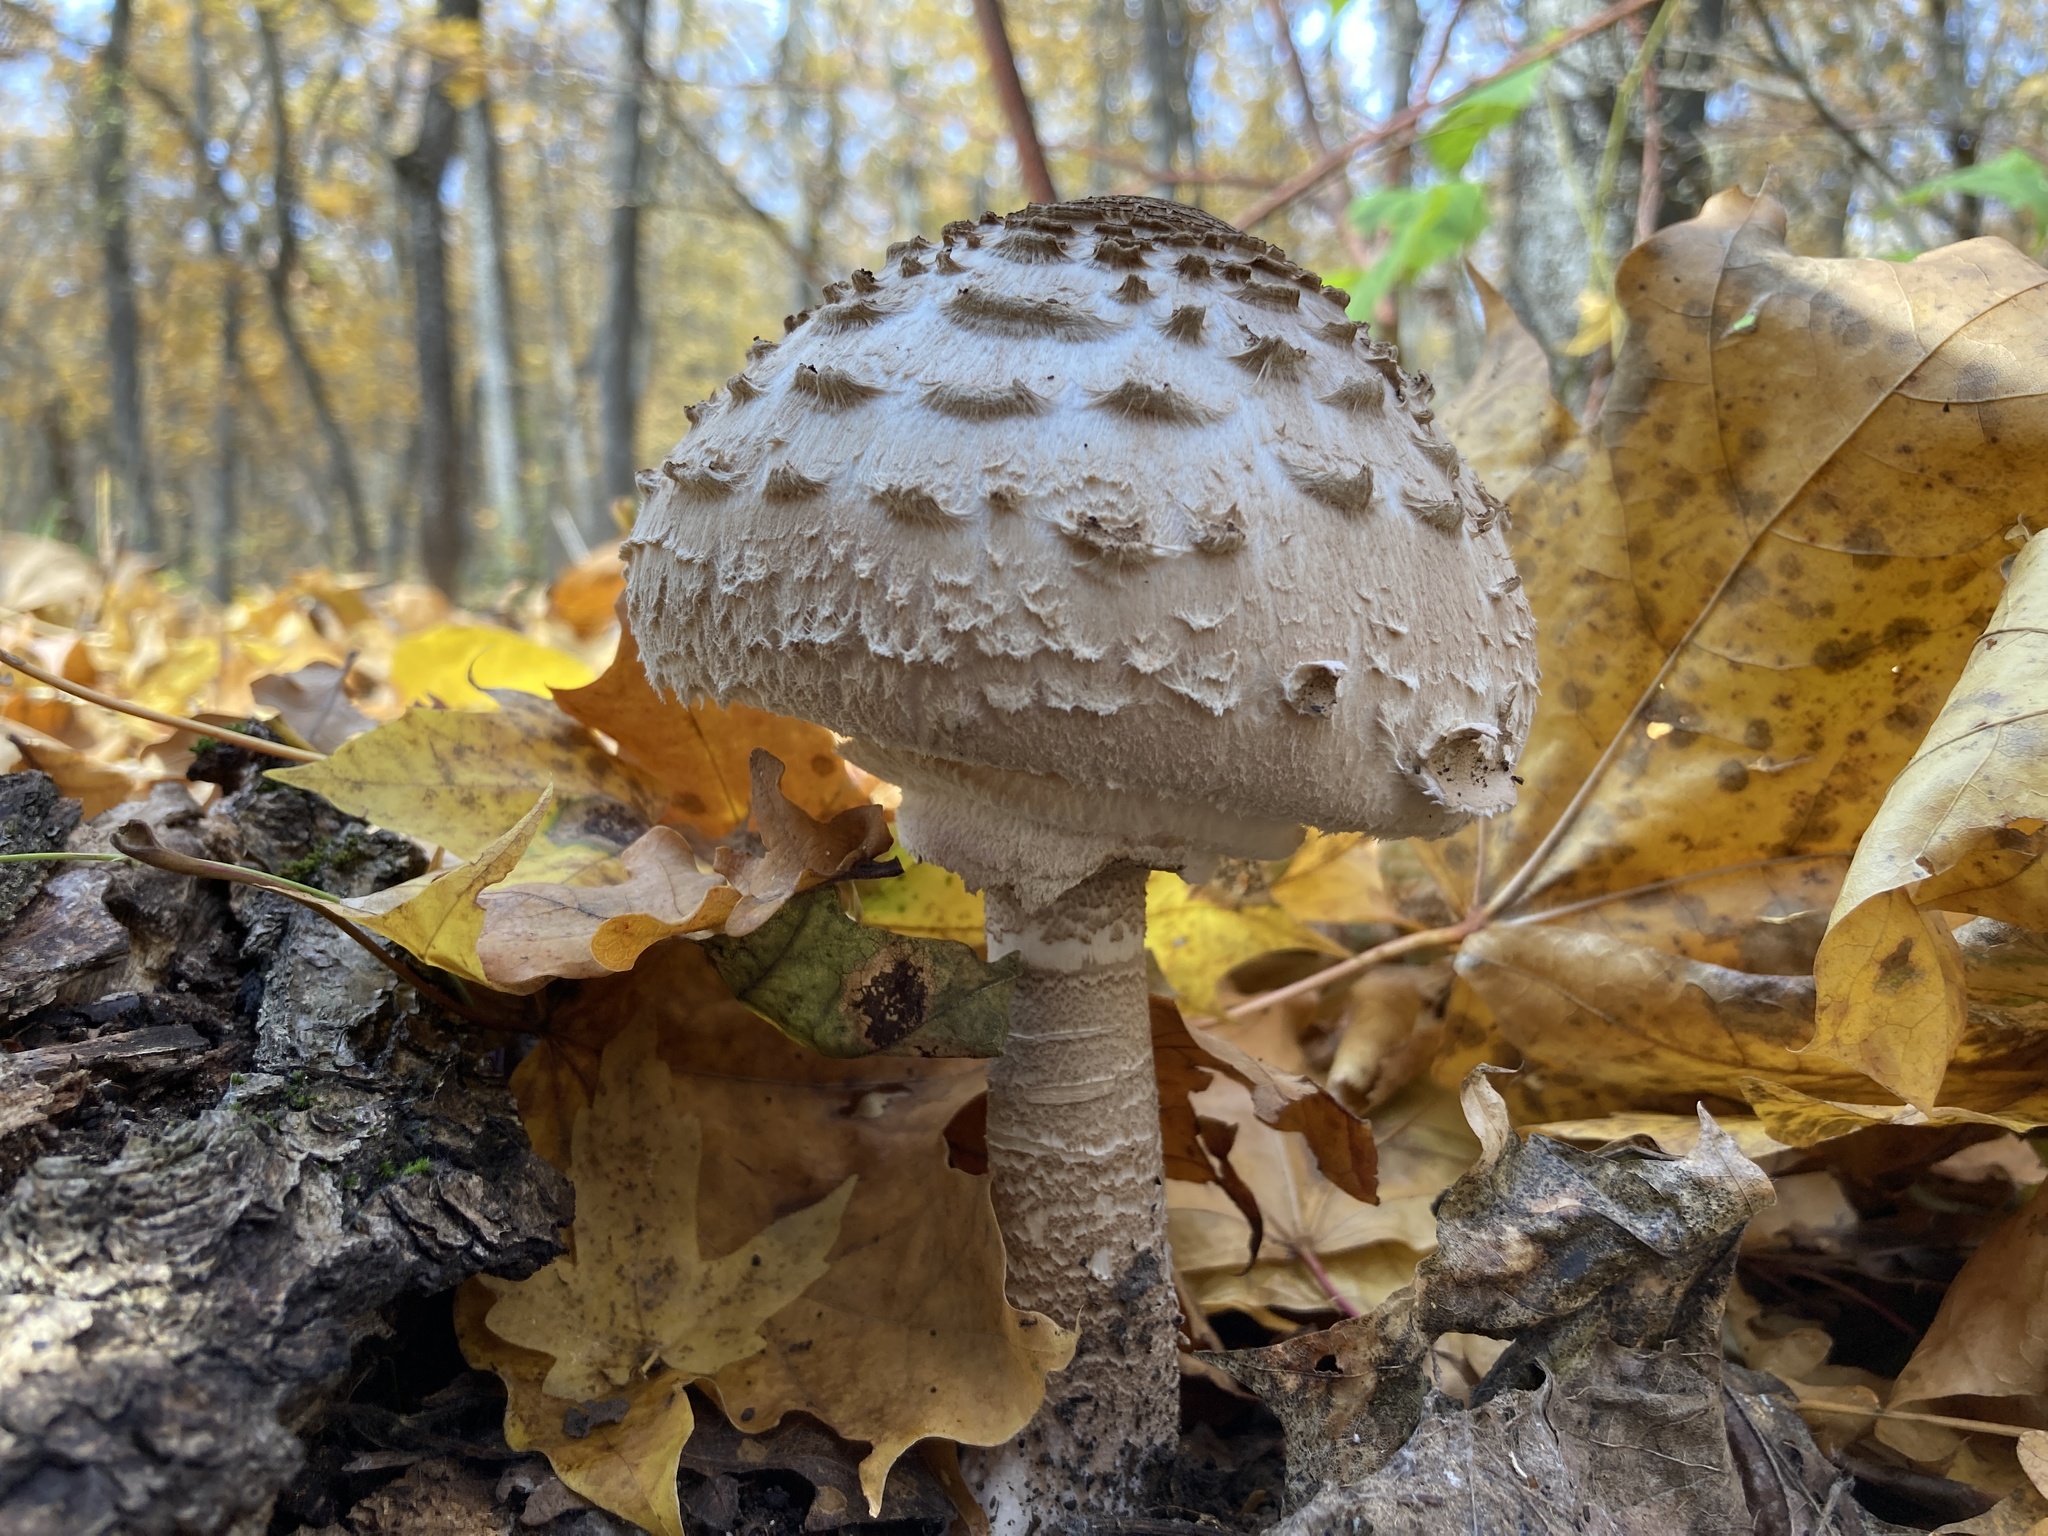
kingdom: Fungi
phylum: Basidiomycota
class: Agaricomycetes
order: Agaricales
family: Agaricaceae
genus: Macrolepiota
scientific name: Macrolepiota procera
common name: Parasol
